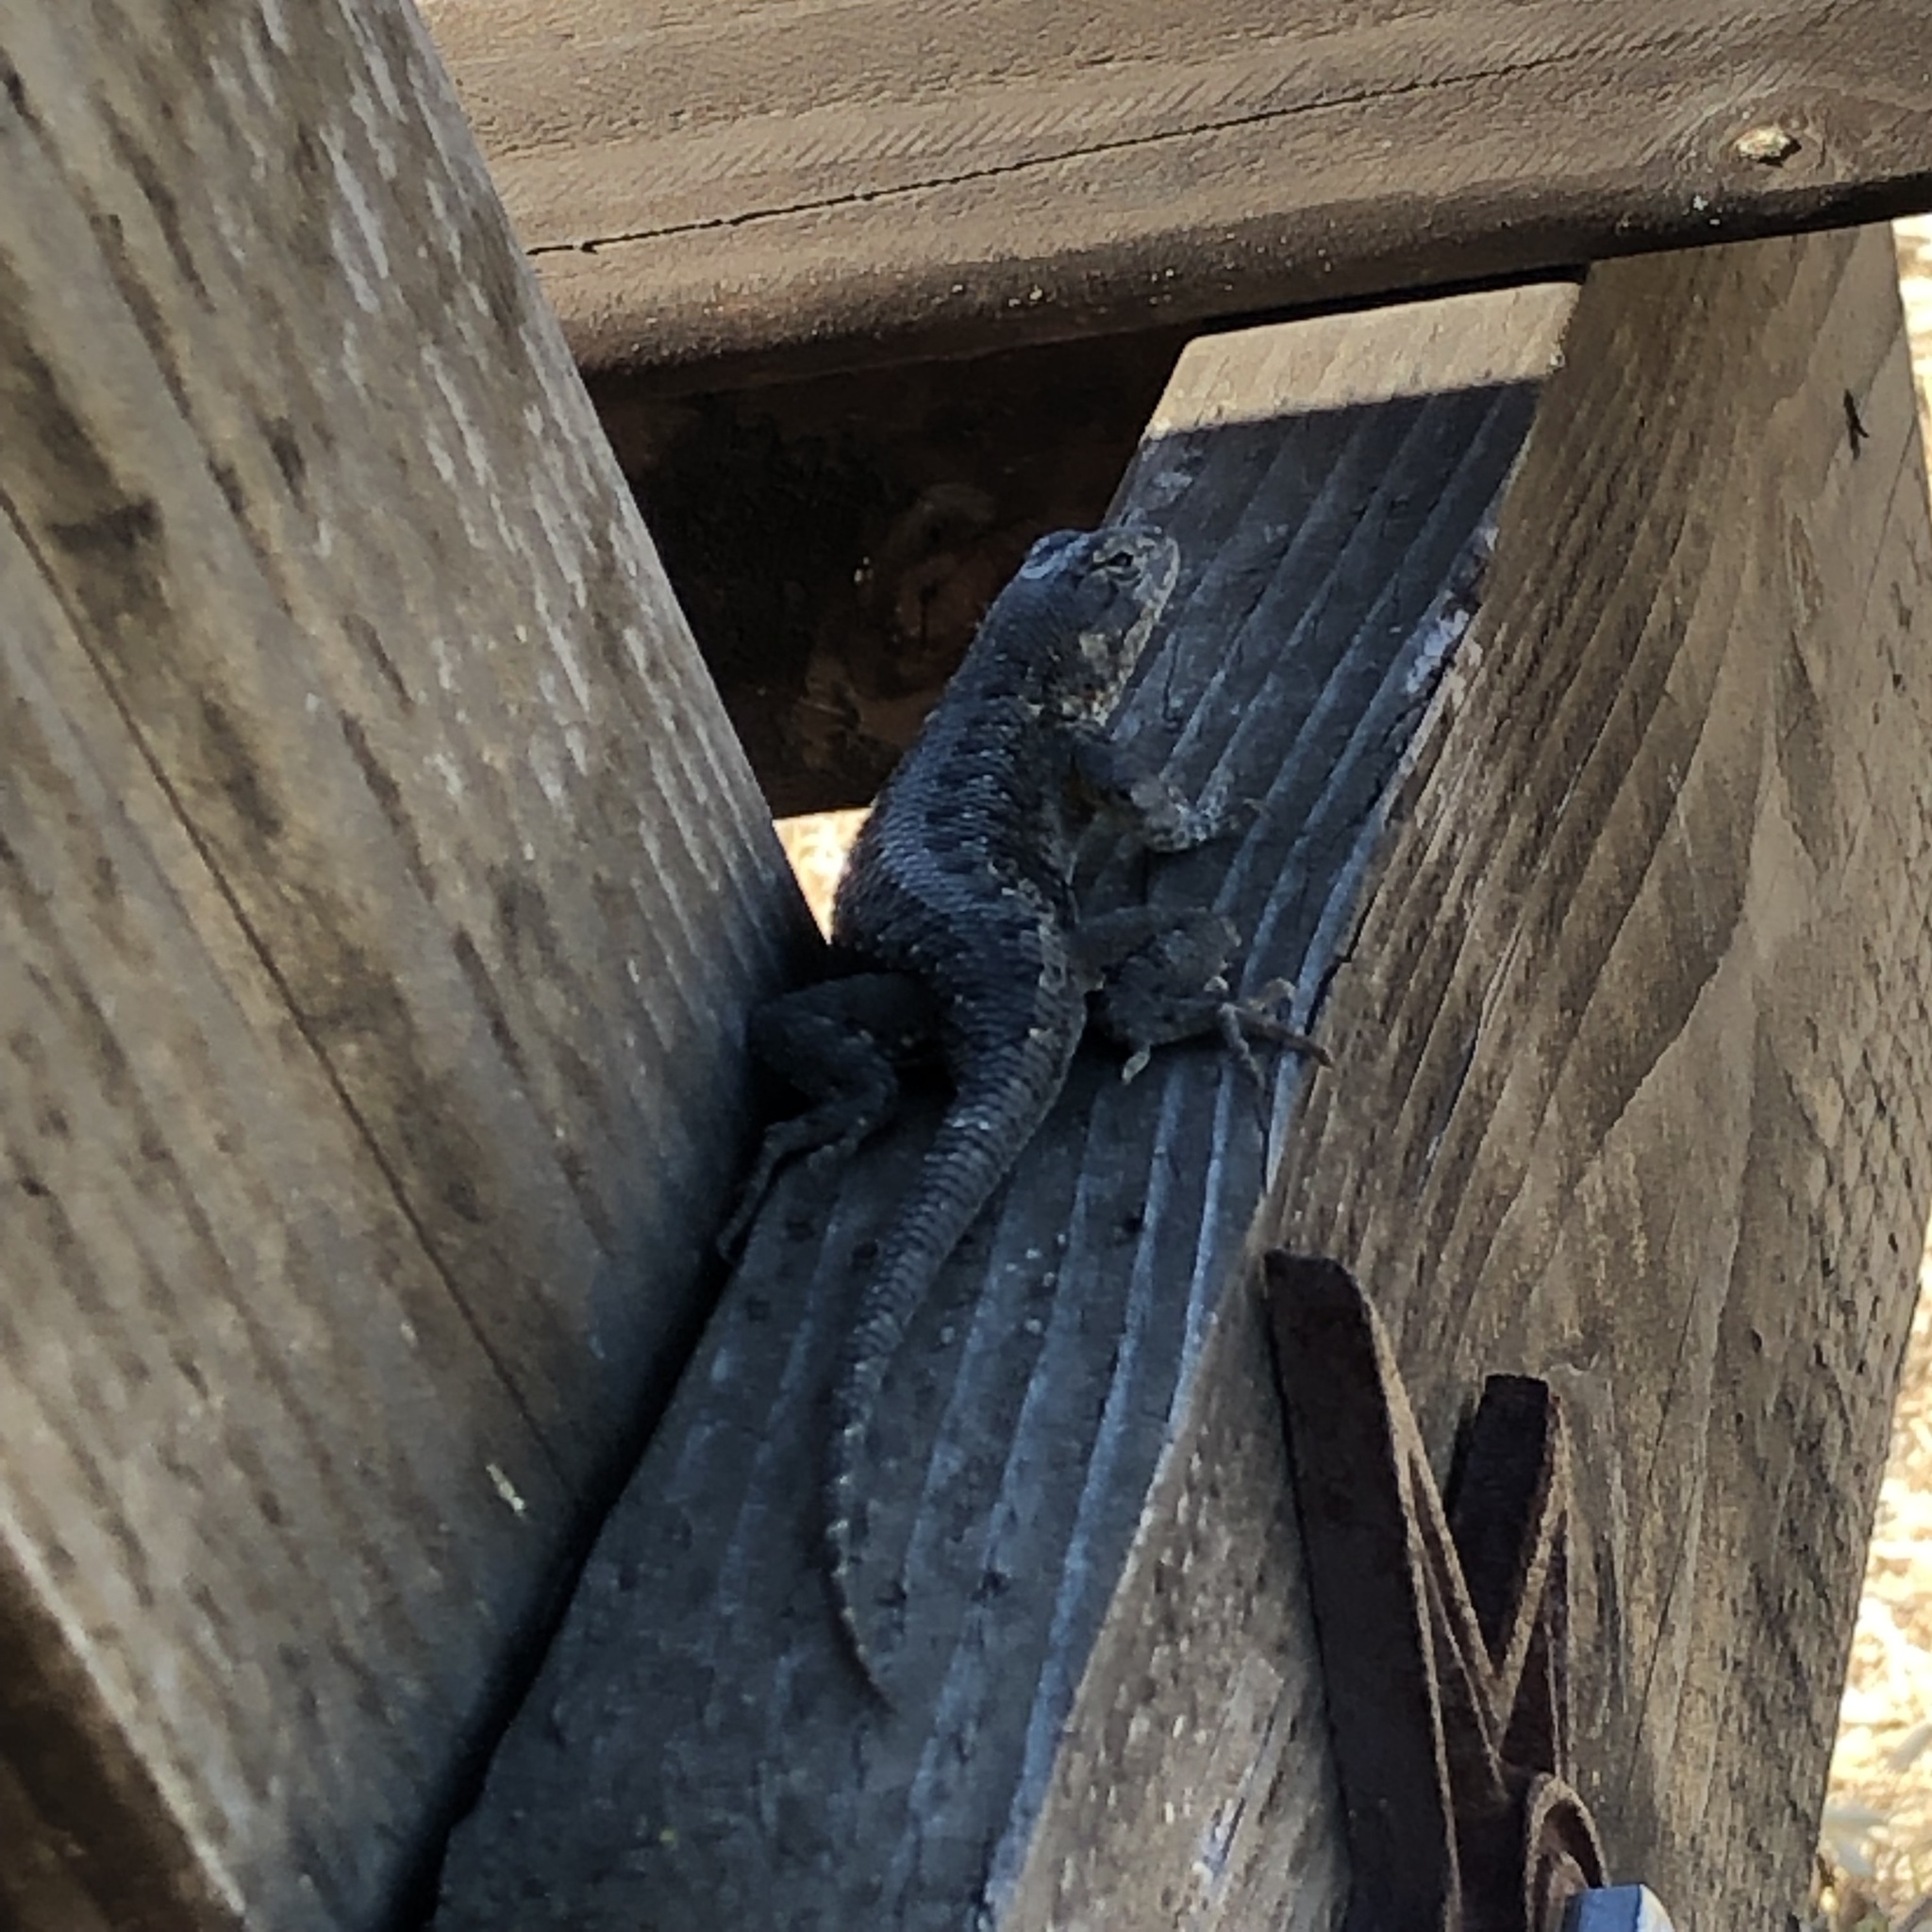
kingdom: Animalia
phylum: Chordata
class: Squamata
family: Phrynosomatidae
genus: Sceloporus
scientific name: Sceloporus occidentalis
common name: Western fence lizard
